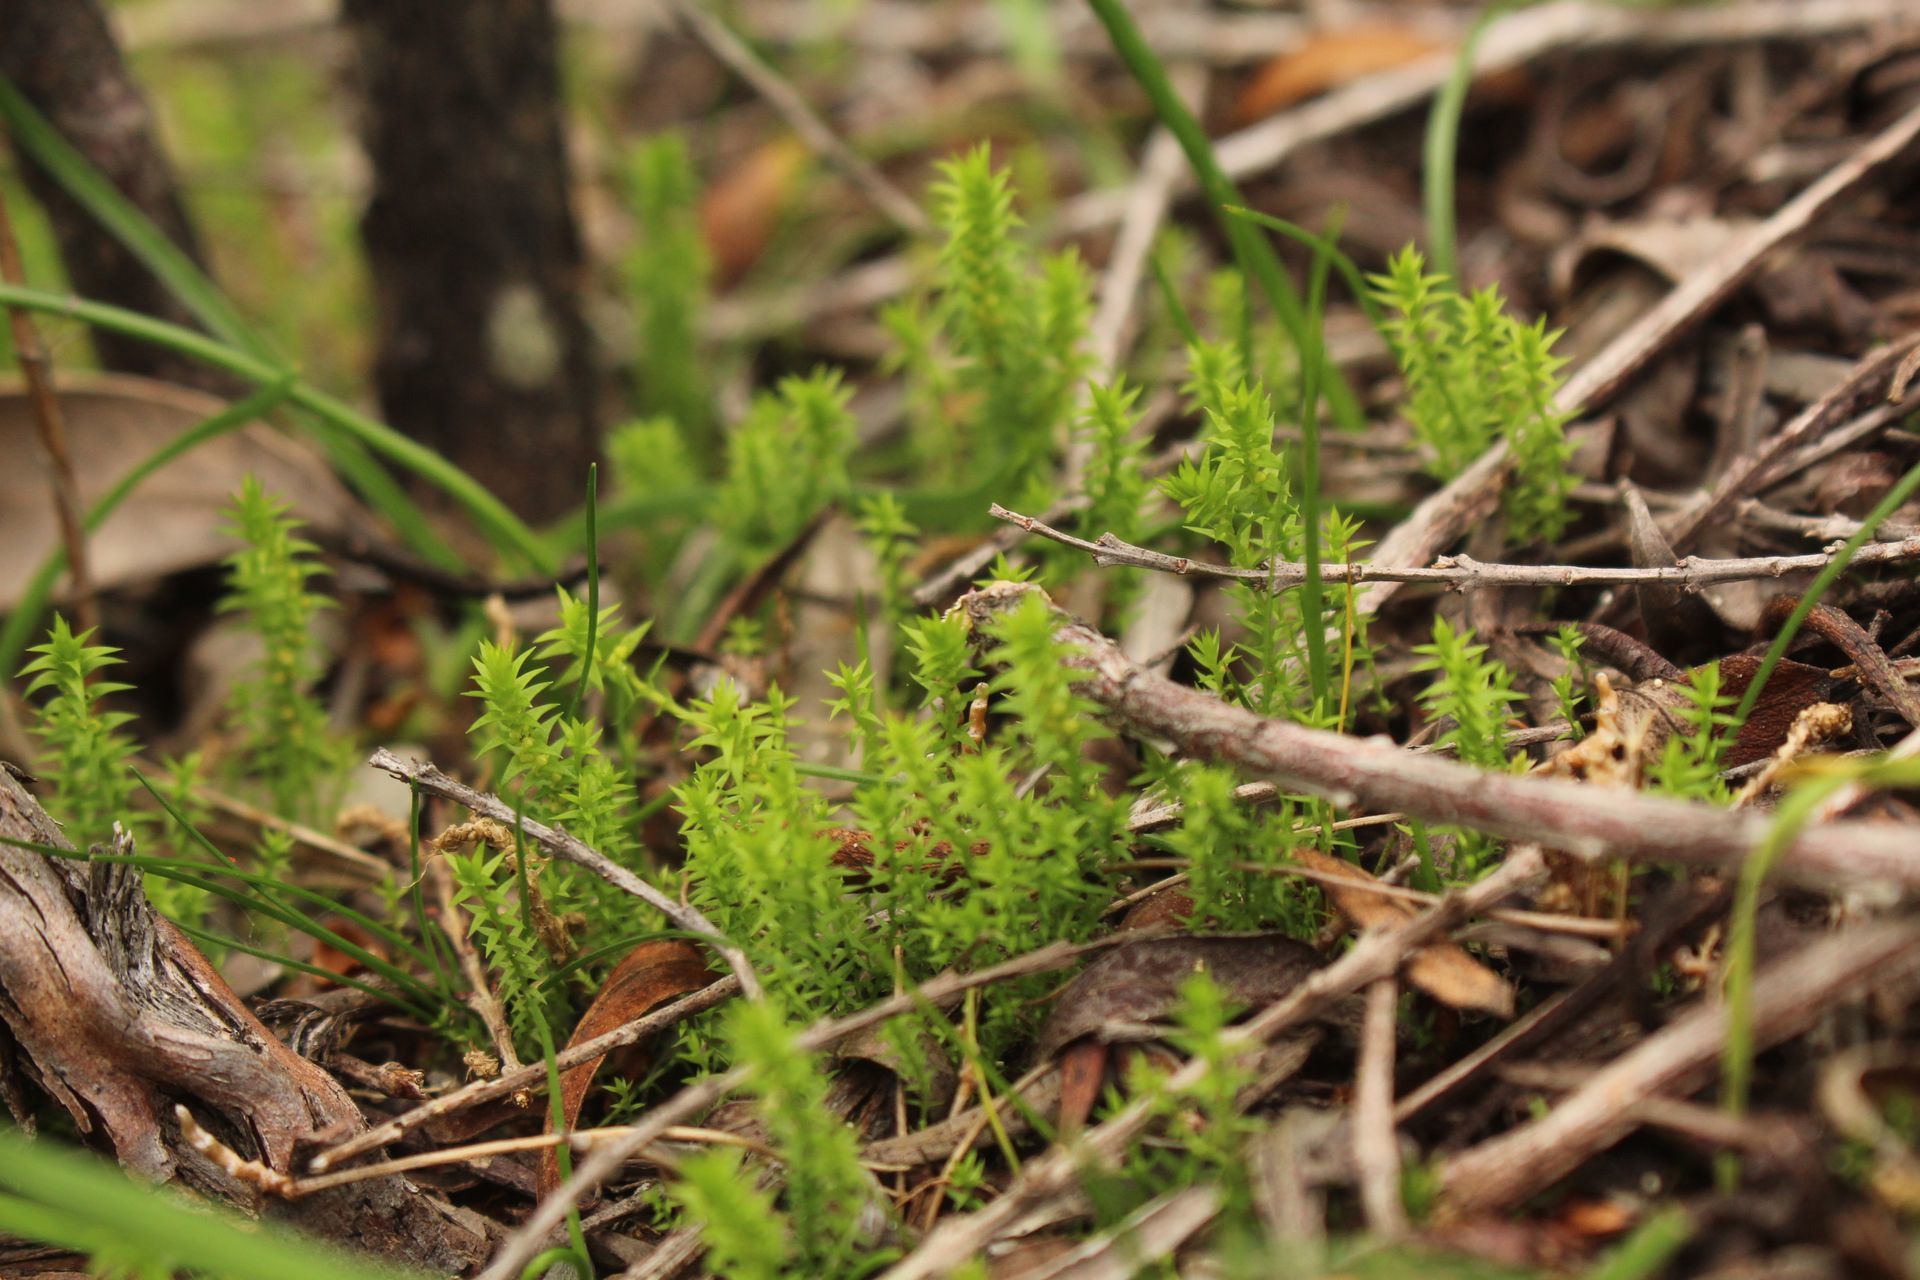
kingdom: Plantae
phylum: Tracheophyta
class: Lycopodiopsida
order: Selaginellales
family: Selaginellaceae
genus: Selaginella
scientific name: Selaginella gracillima
